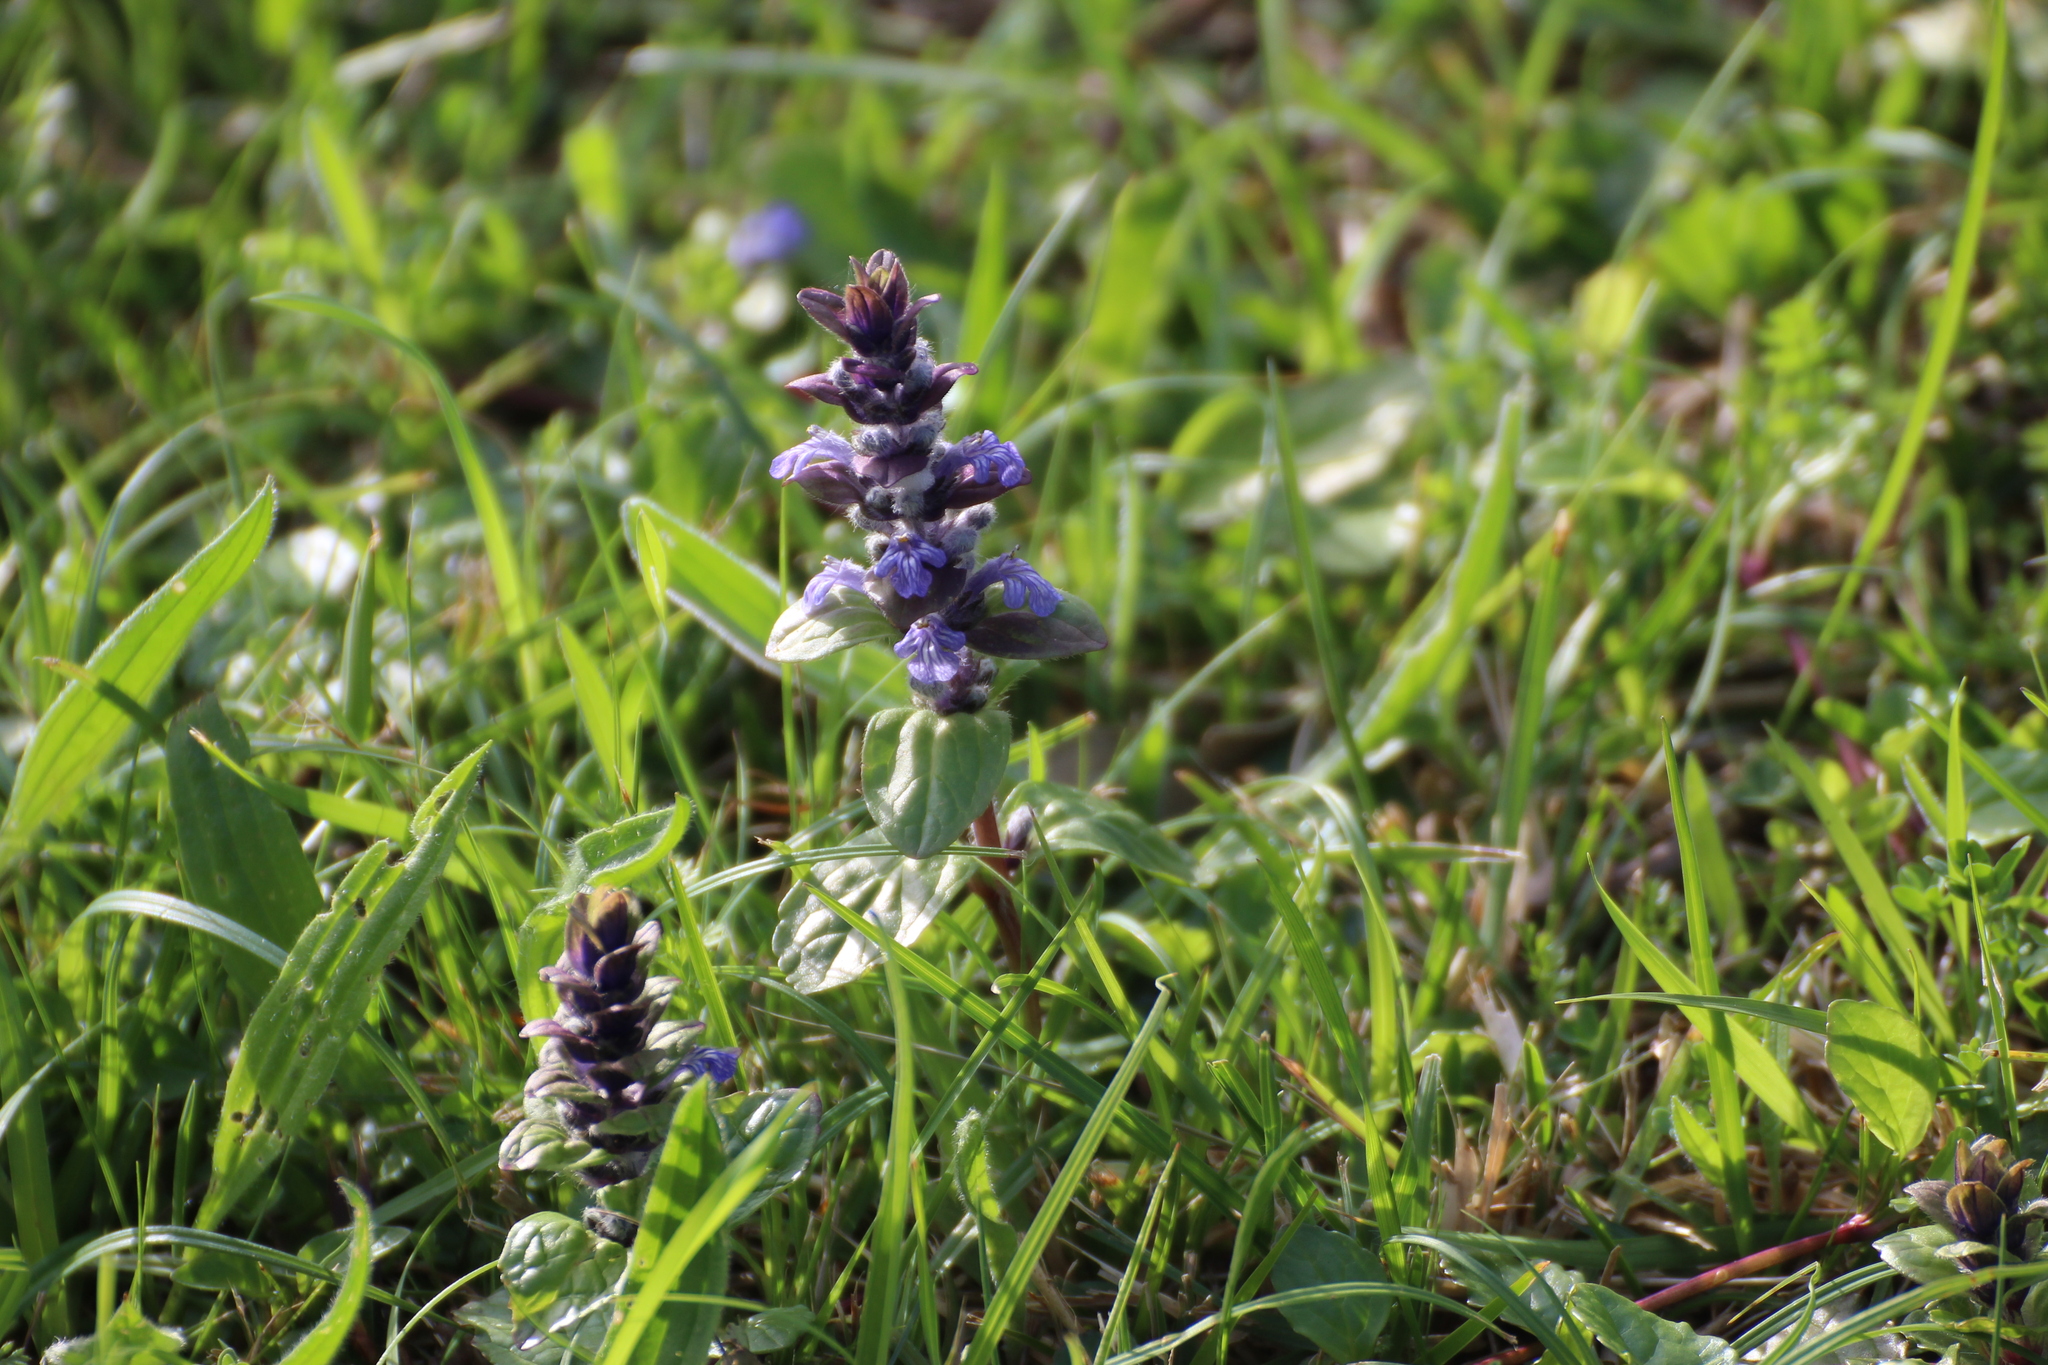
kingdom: Plantae
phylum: Tracheophyta
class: Magnoliopsida
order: Lamiales
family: Lamiaceae
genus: Ajuga
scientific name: Ajuga reptans
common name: Bugle
